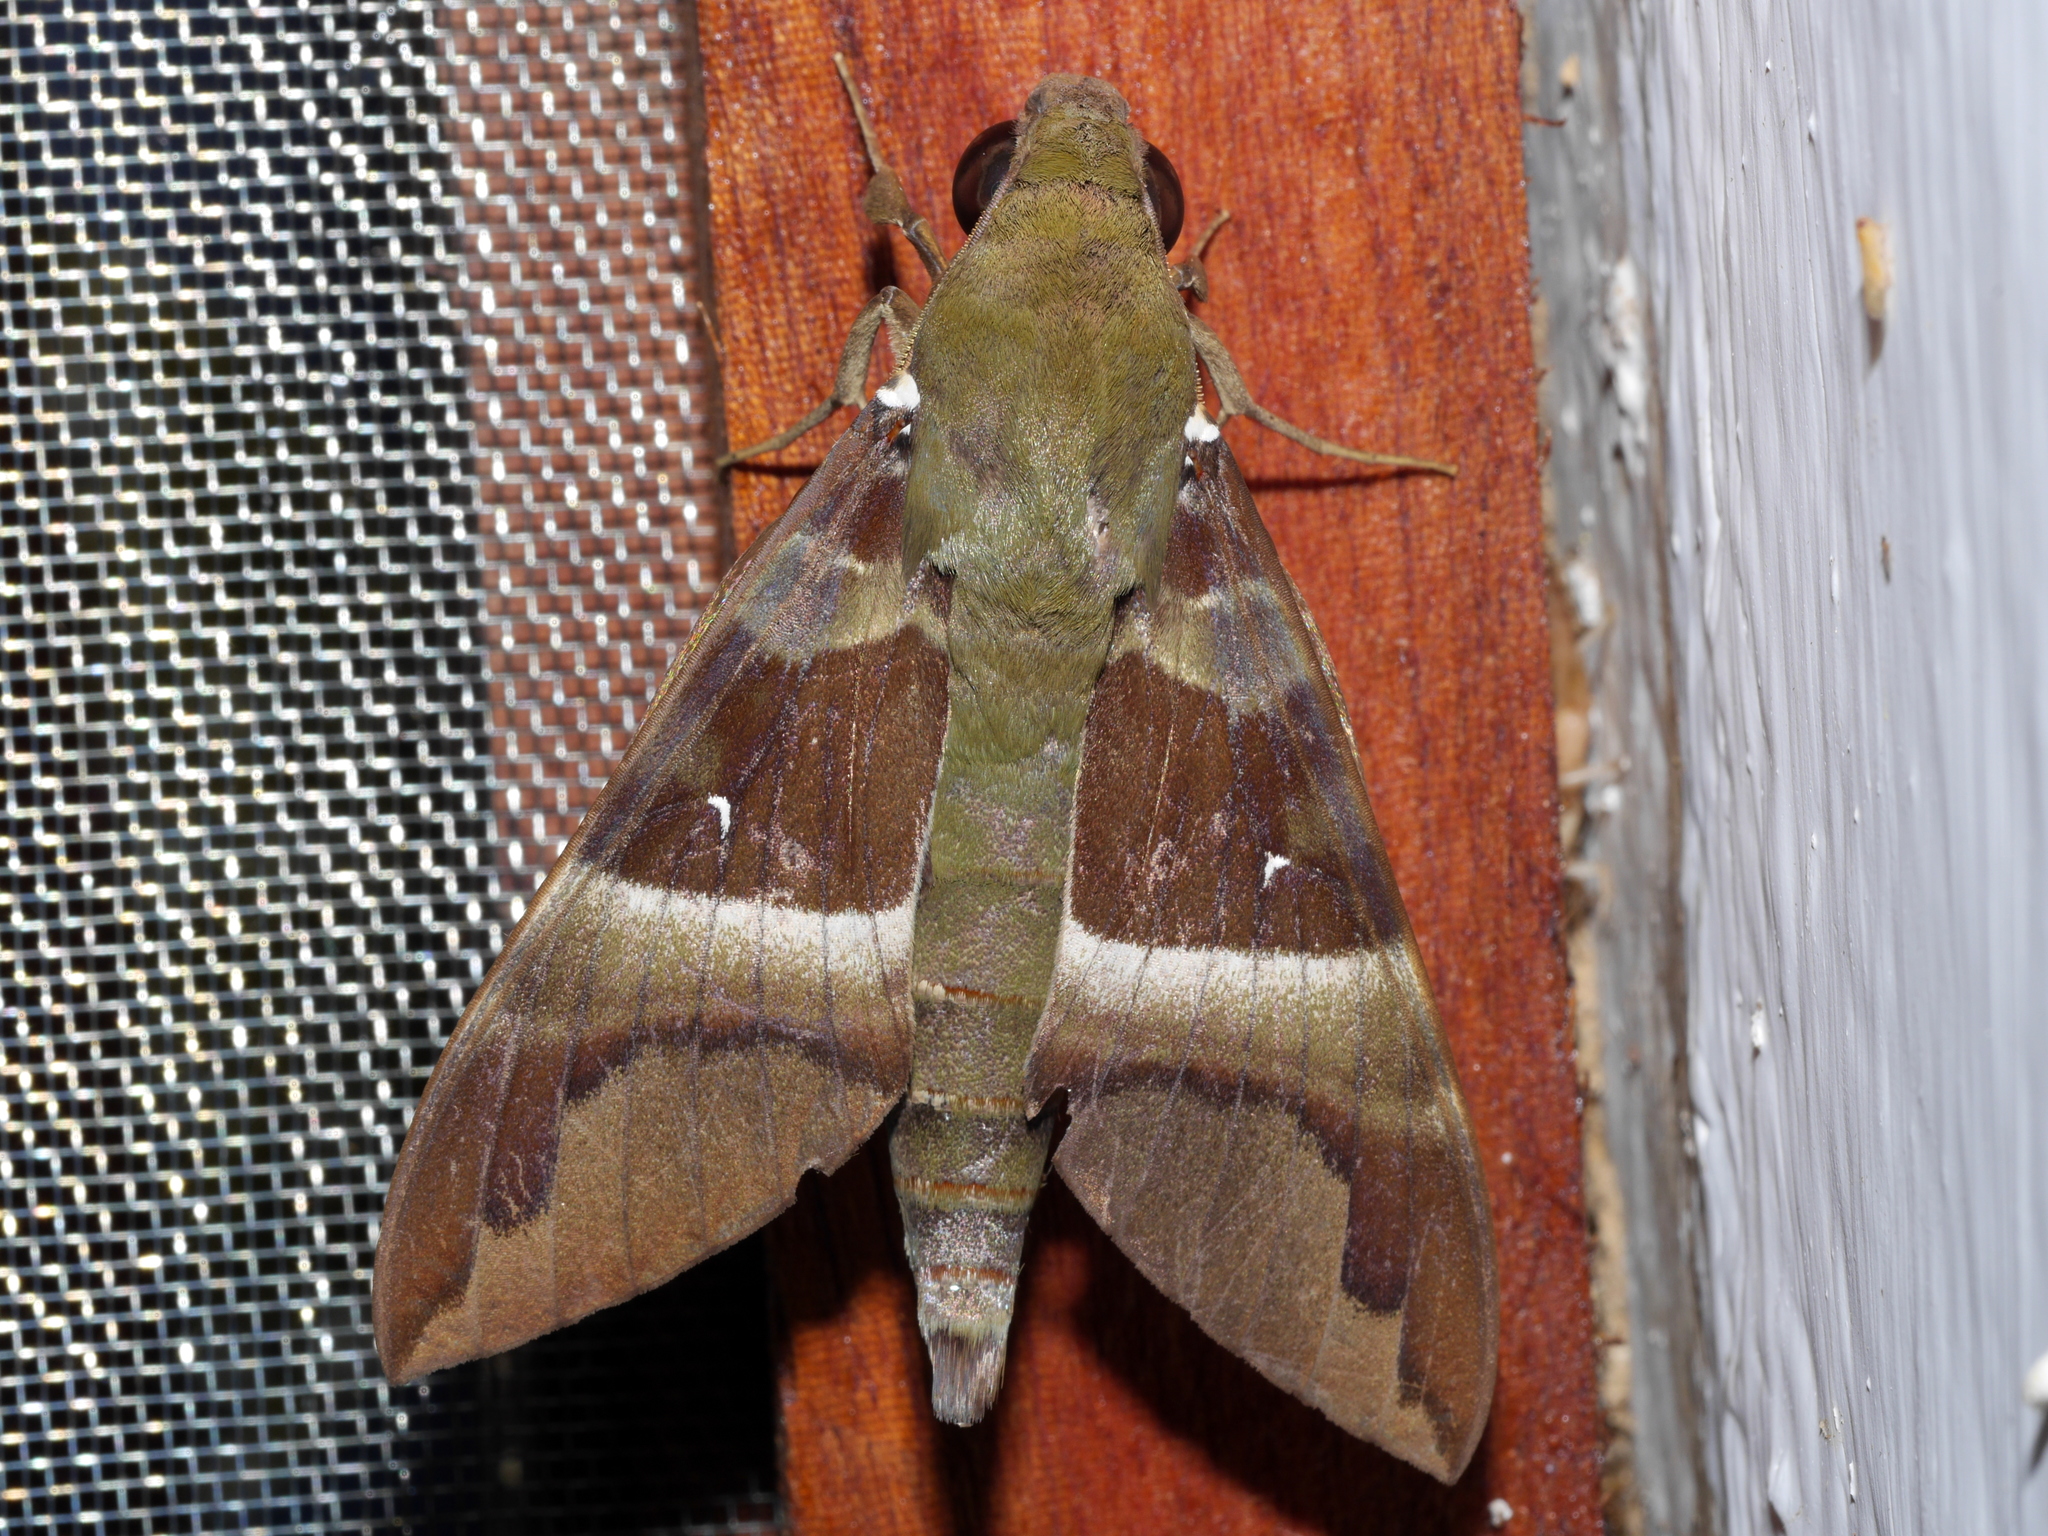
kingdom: Animalia
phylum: Arthropoda
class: Insecta
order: Lepidoptera
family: Sphingidae
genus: Nephele
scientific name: Nephele rosae
